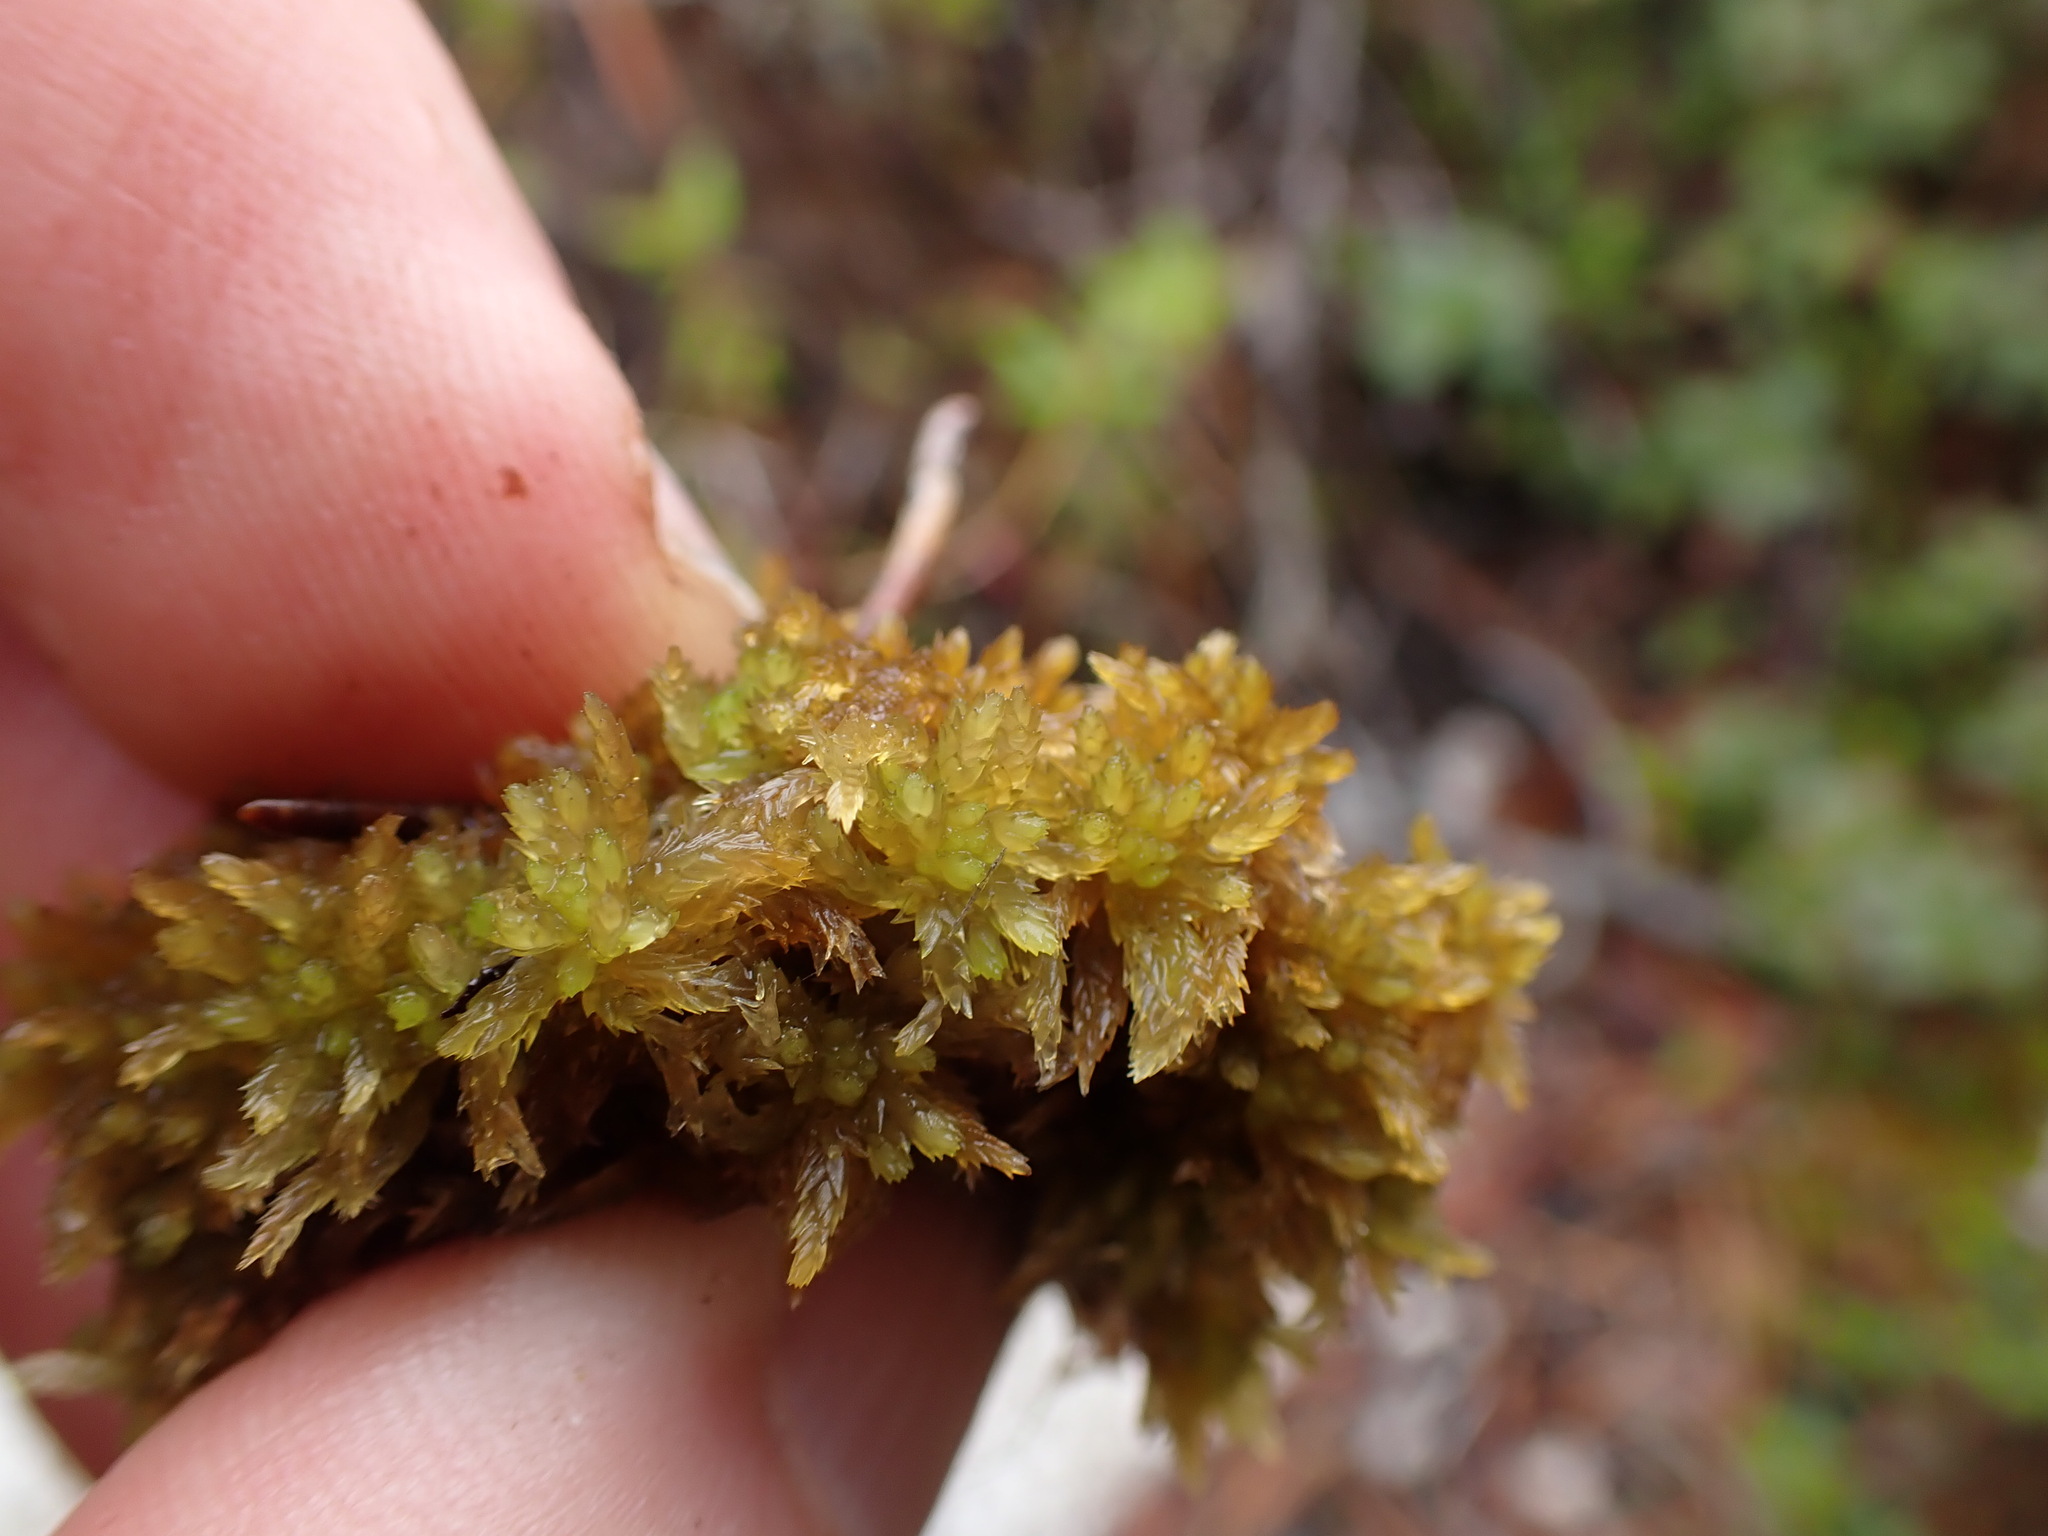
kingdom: Plantae
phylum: Bryophyta
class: Sphagnopsida
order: Sphagnales
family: Sphagnaceae
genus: Sphagnum
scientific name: Sphagnum tenellum
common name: Soft bog-moss
